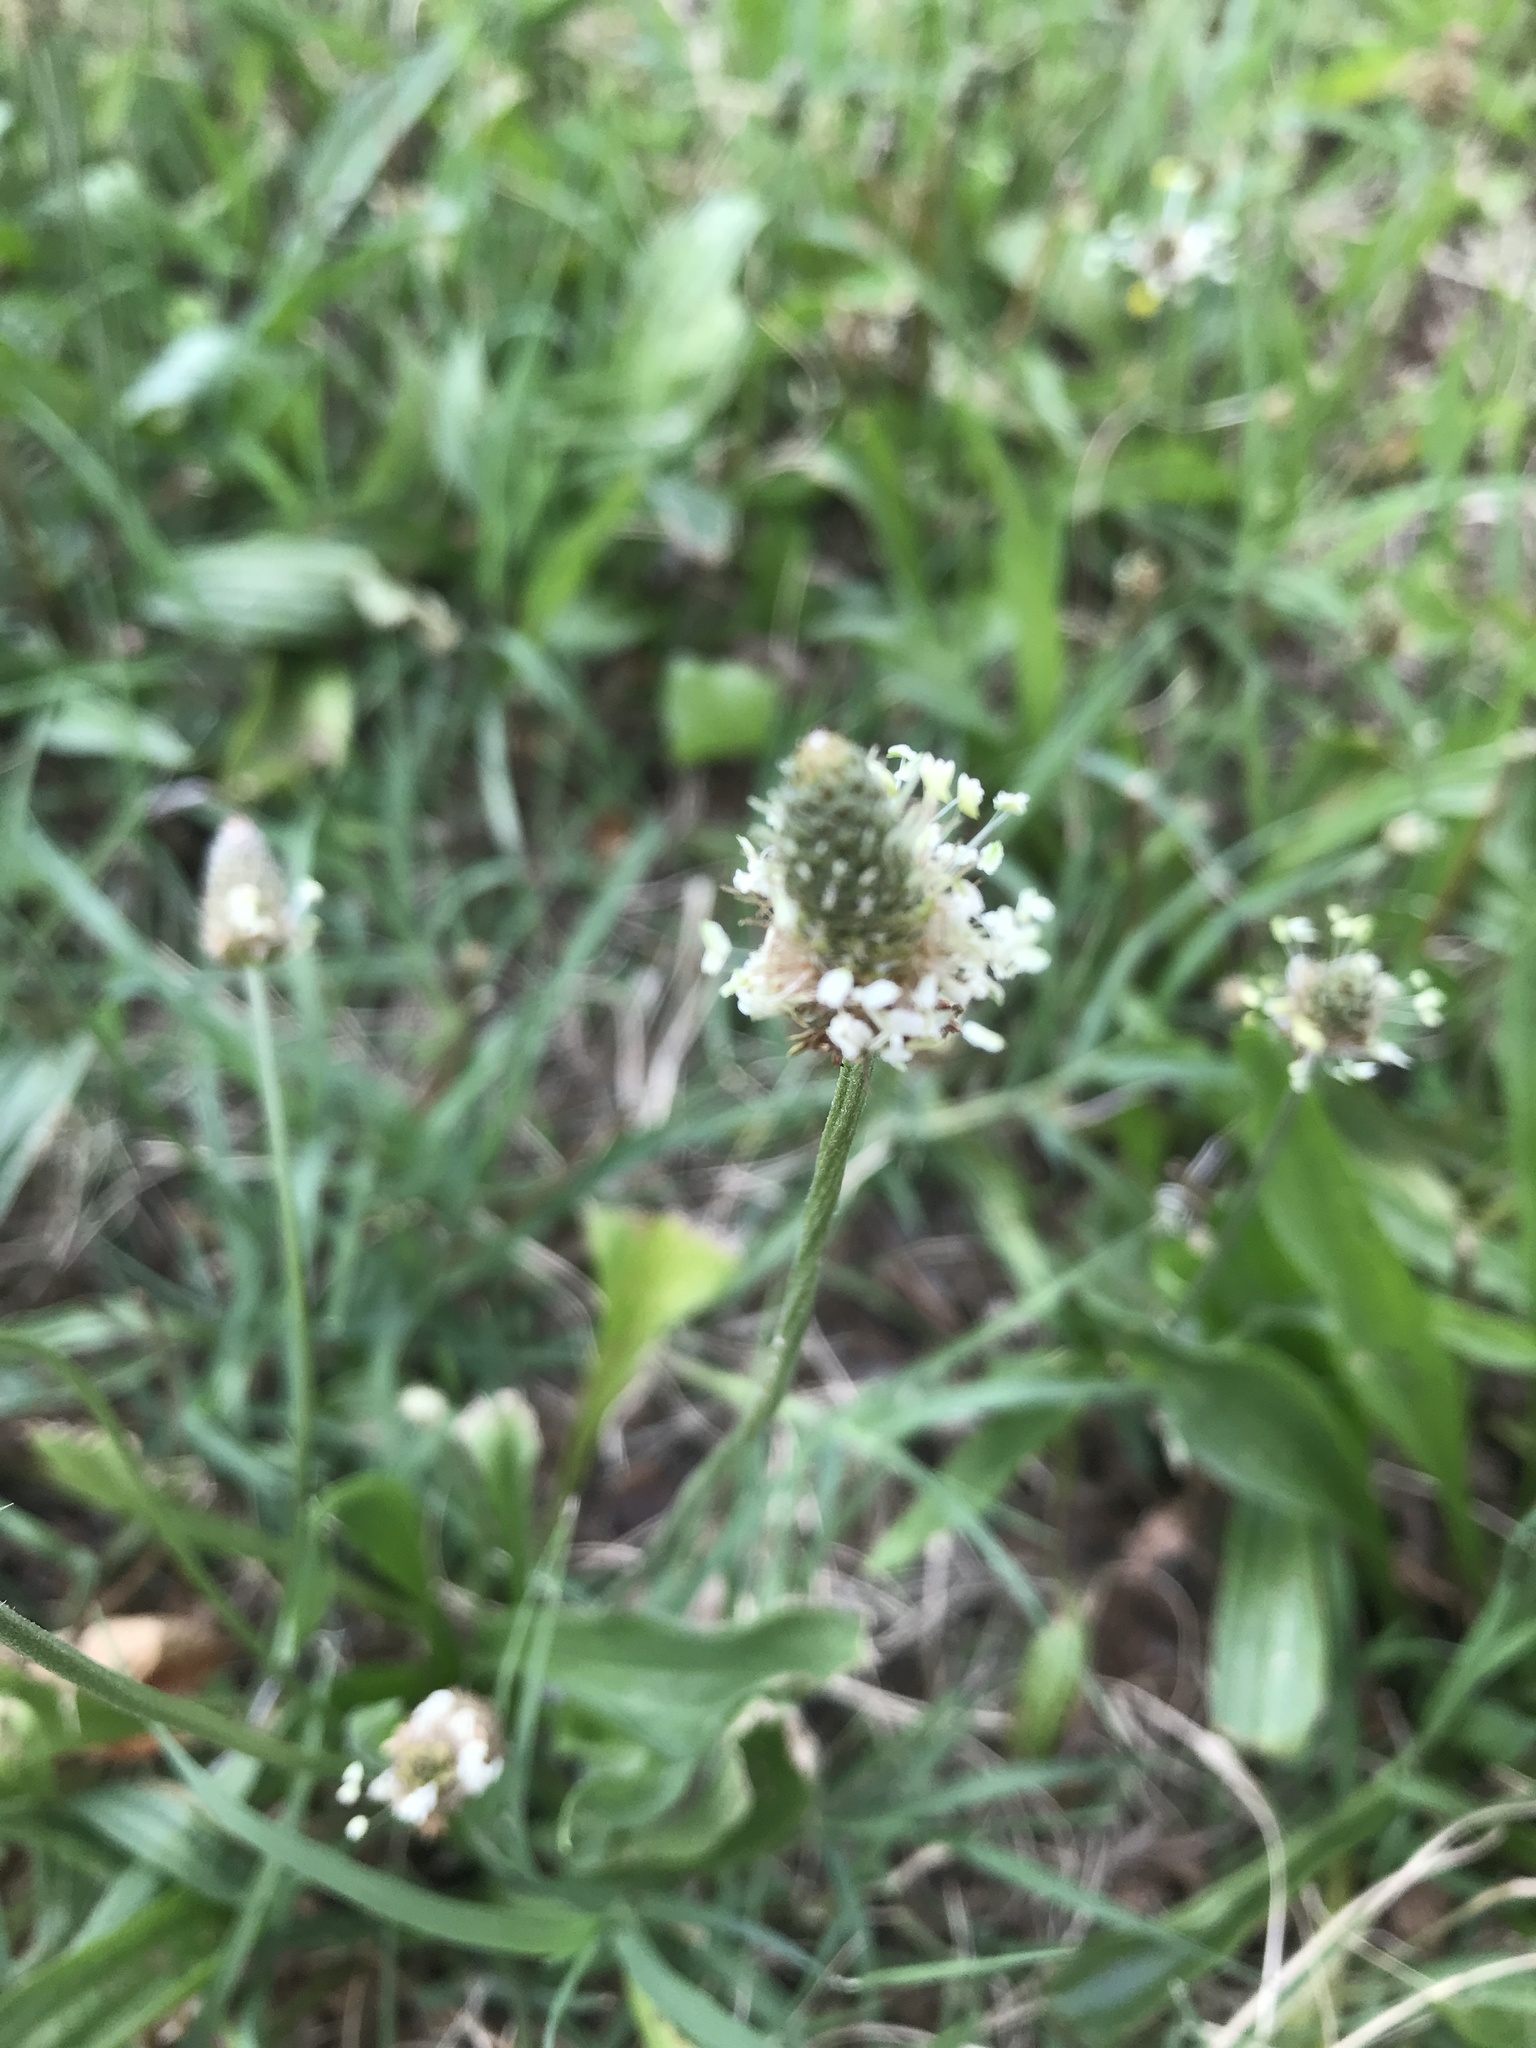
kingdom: Plantae
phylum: Tracheophyta
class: Magnoliopsida
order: Lamiales
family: Plantaginaceae
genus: Plantago
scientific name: Plantago lanceolata
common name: Ribwort plantain
